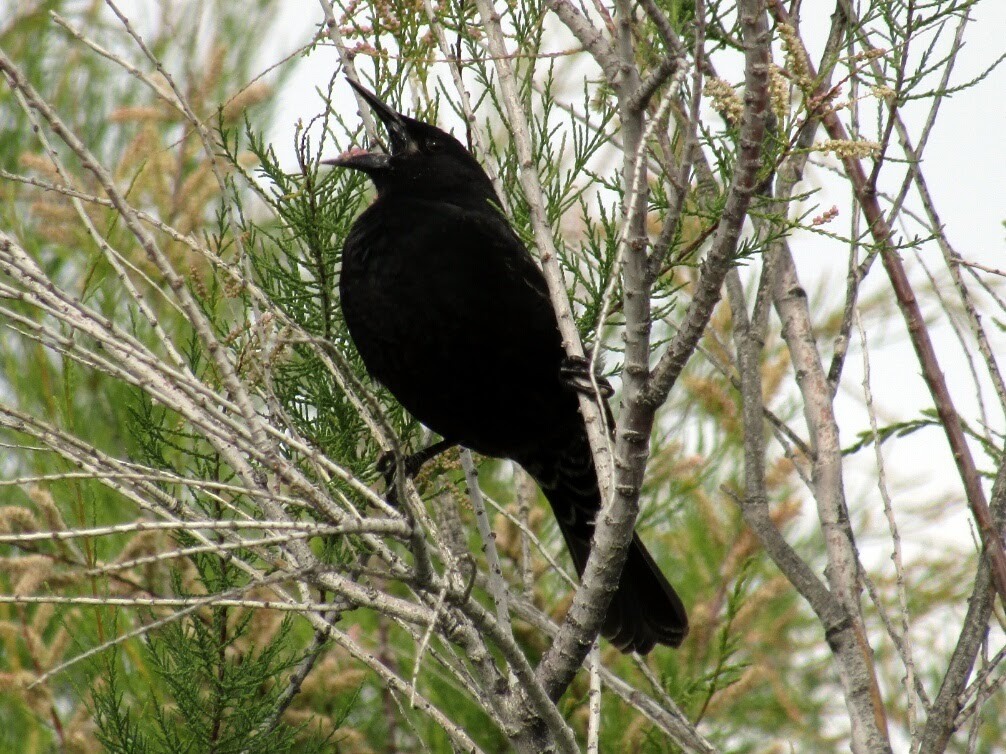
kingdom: Animalia
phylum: Chordata
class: Aves
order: Passeriformes
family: Icteridae
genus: Agelasticus
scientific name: Agelasticus thilius
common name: Yellow-winged blackbird
